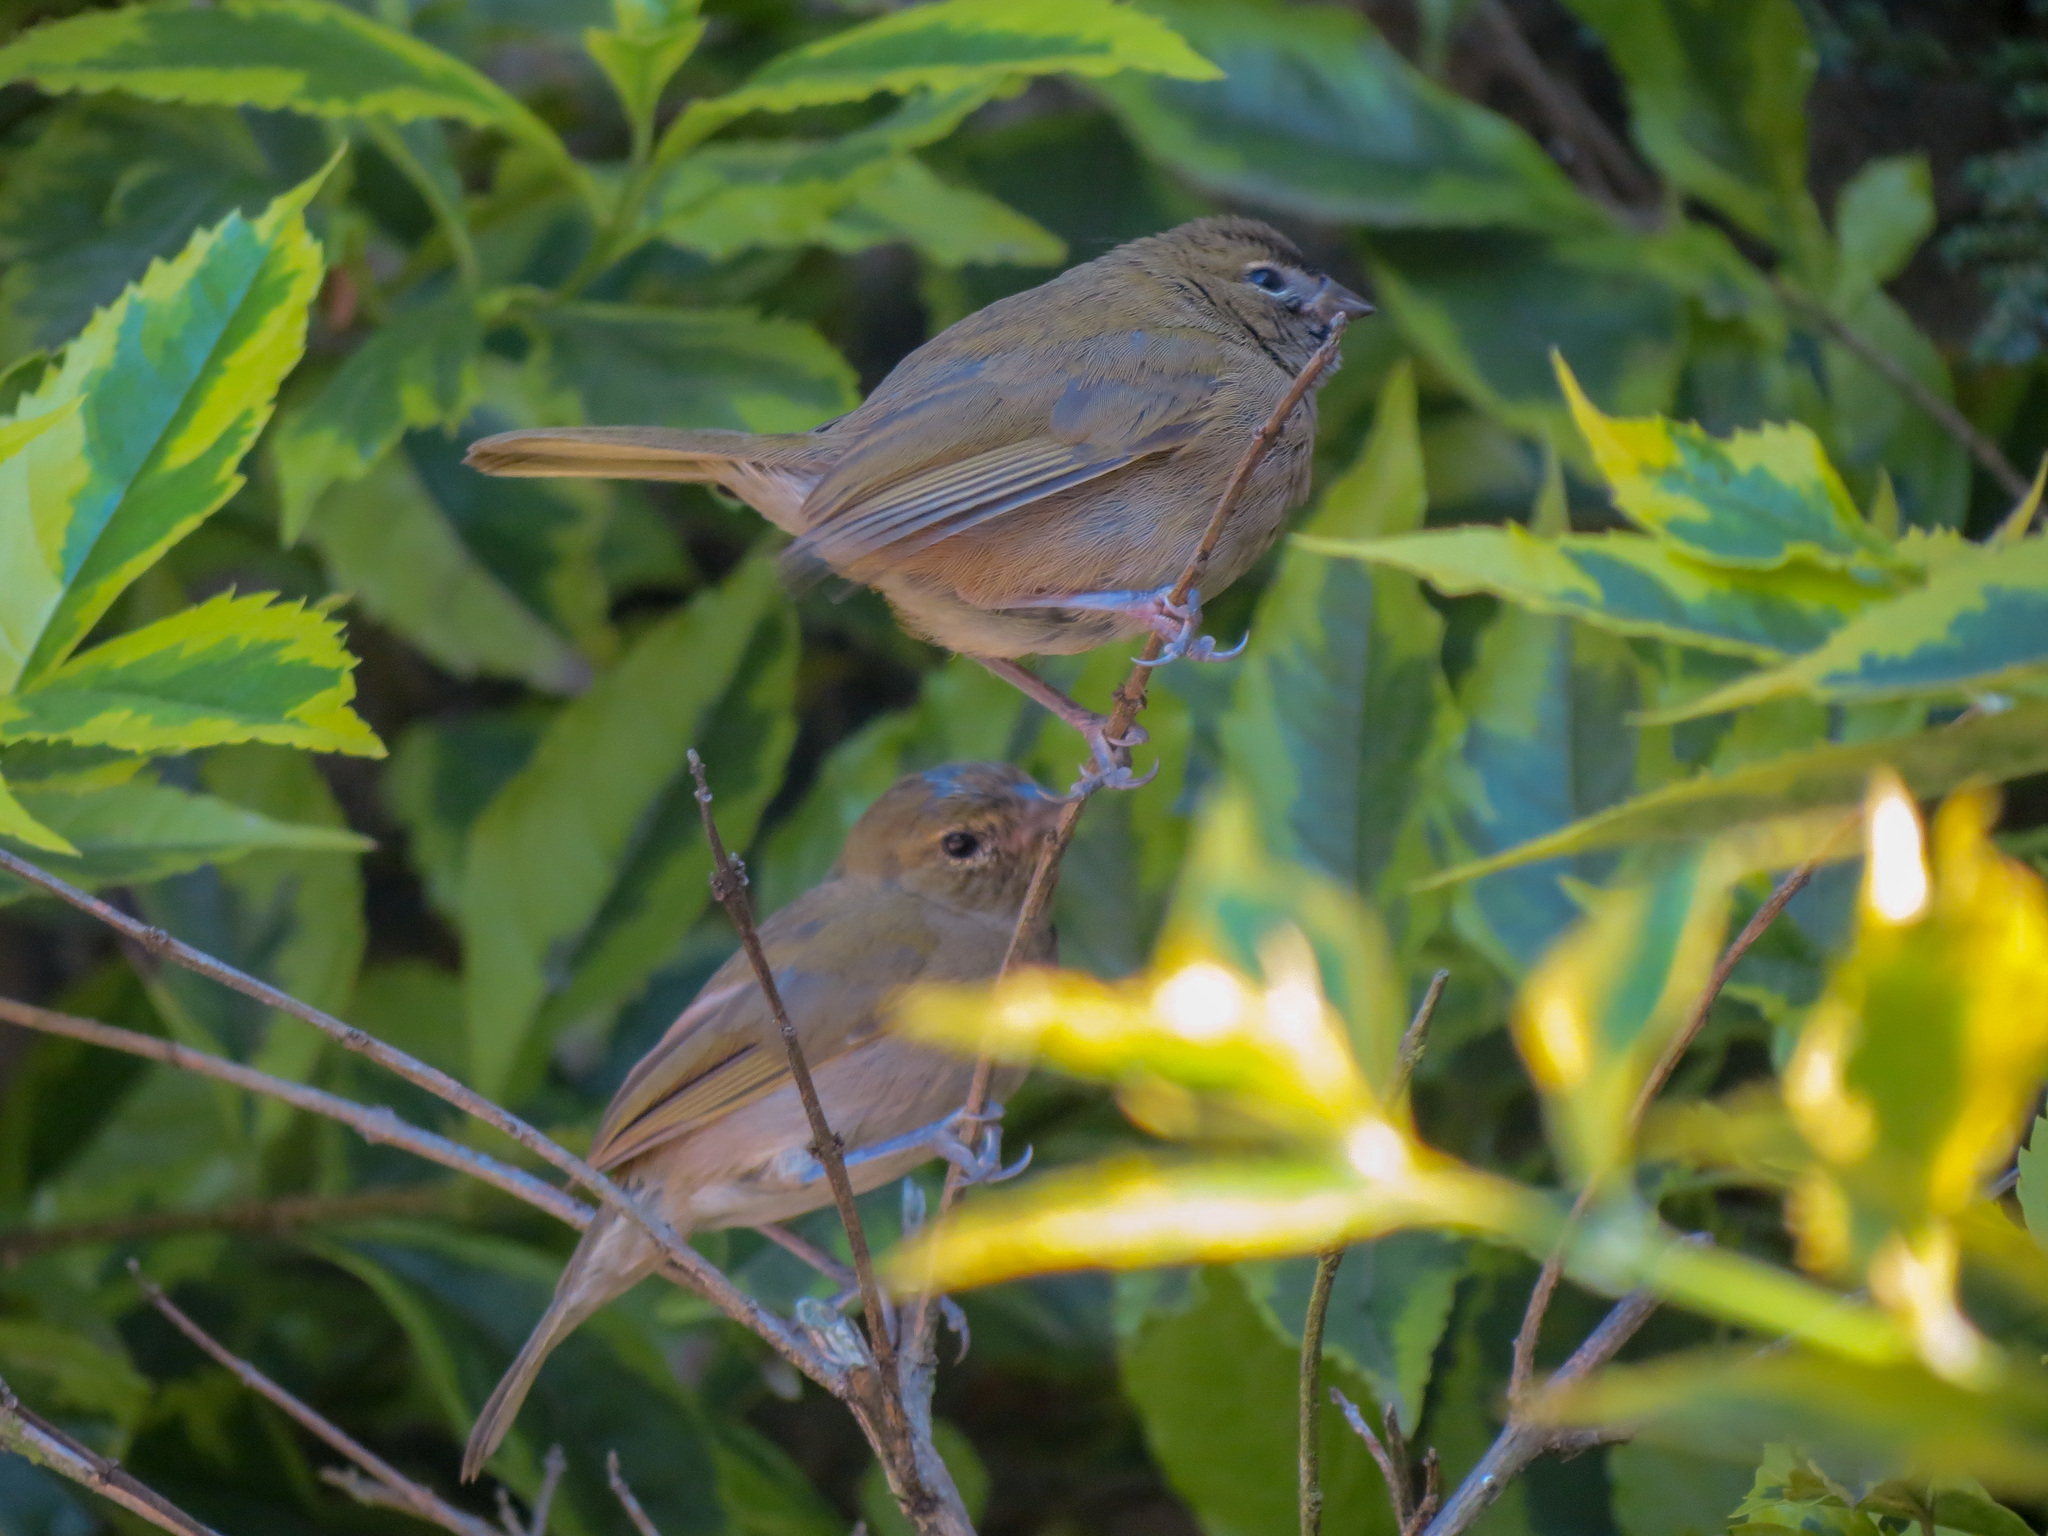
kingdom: Animalia
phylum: Chordata
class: Aves
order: Passeriformes
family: Thraupidae
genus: Tiaris
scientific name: Tiaris olivaceus
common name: Yellow-faced grassquit
